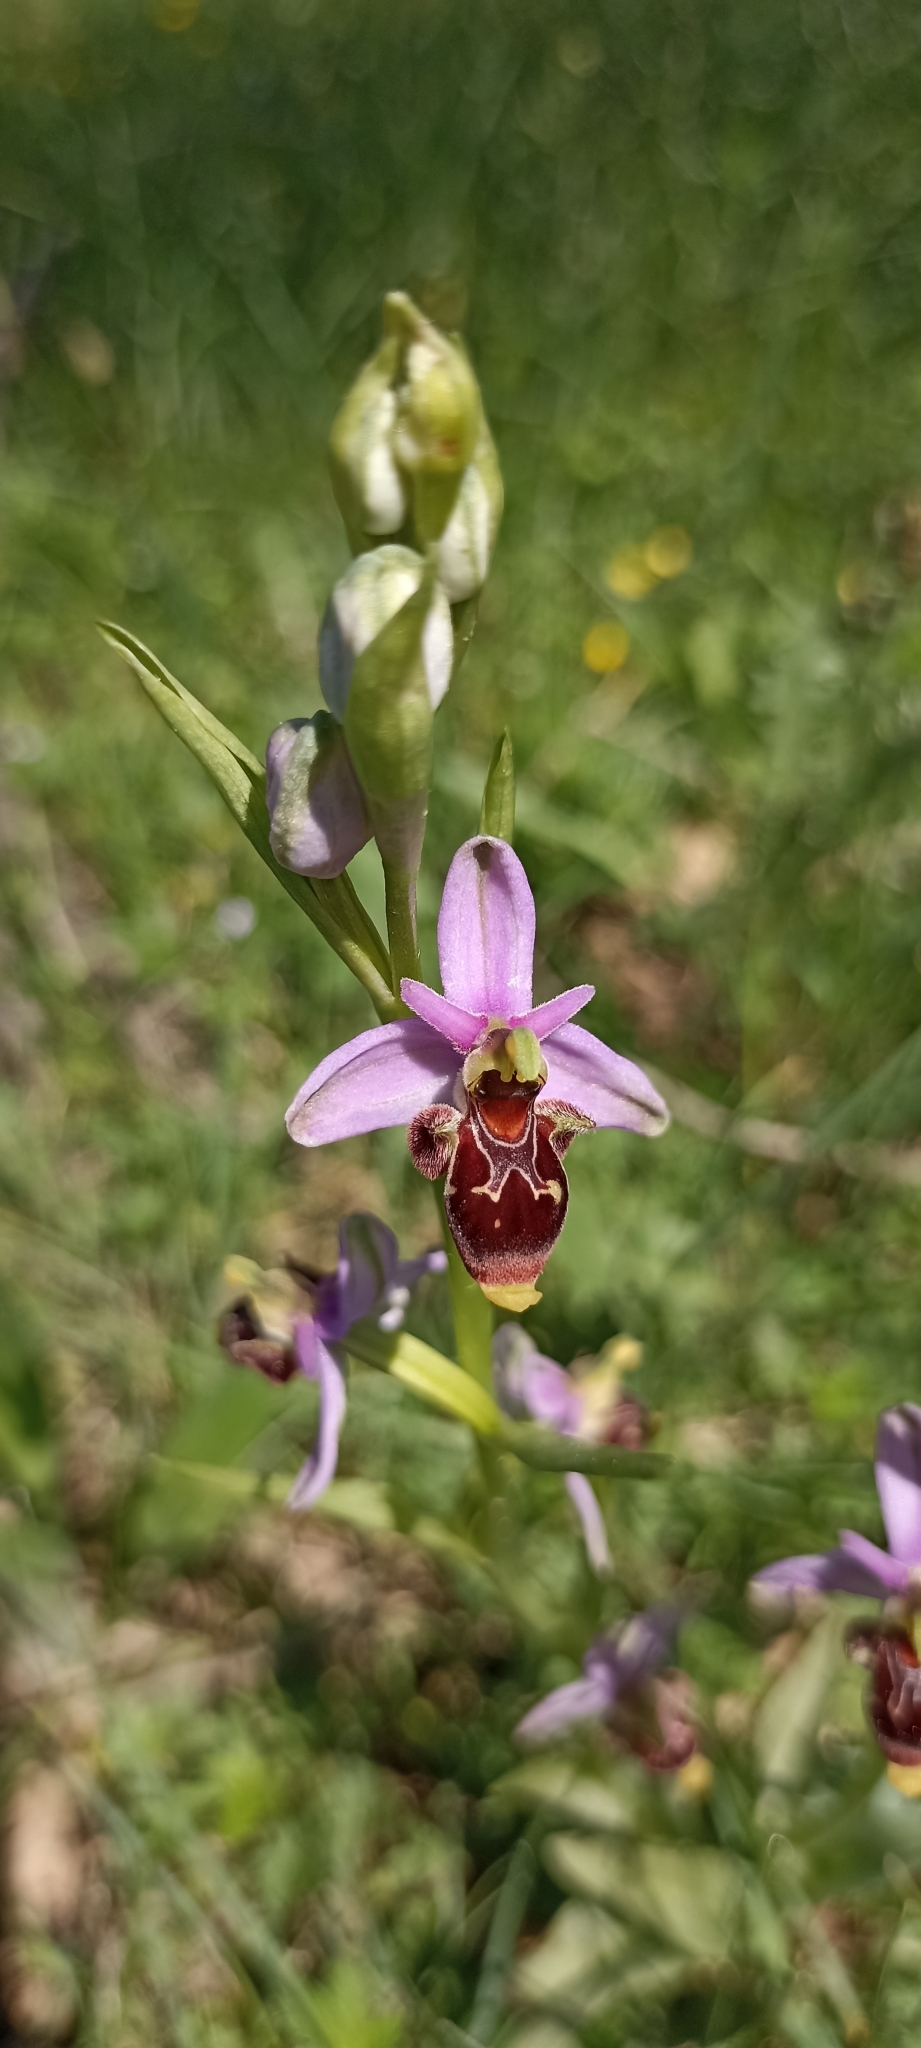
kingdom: Plantae
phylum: Tracheophyta
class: Liliopsida
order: Asparagales
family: Orchidaceae
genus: Ophrys
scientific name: Ophrys scolopax
